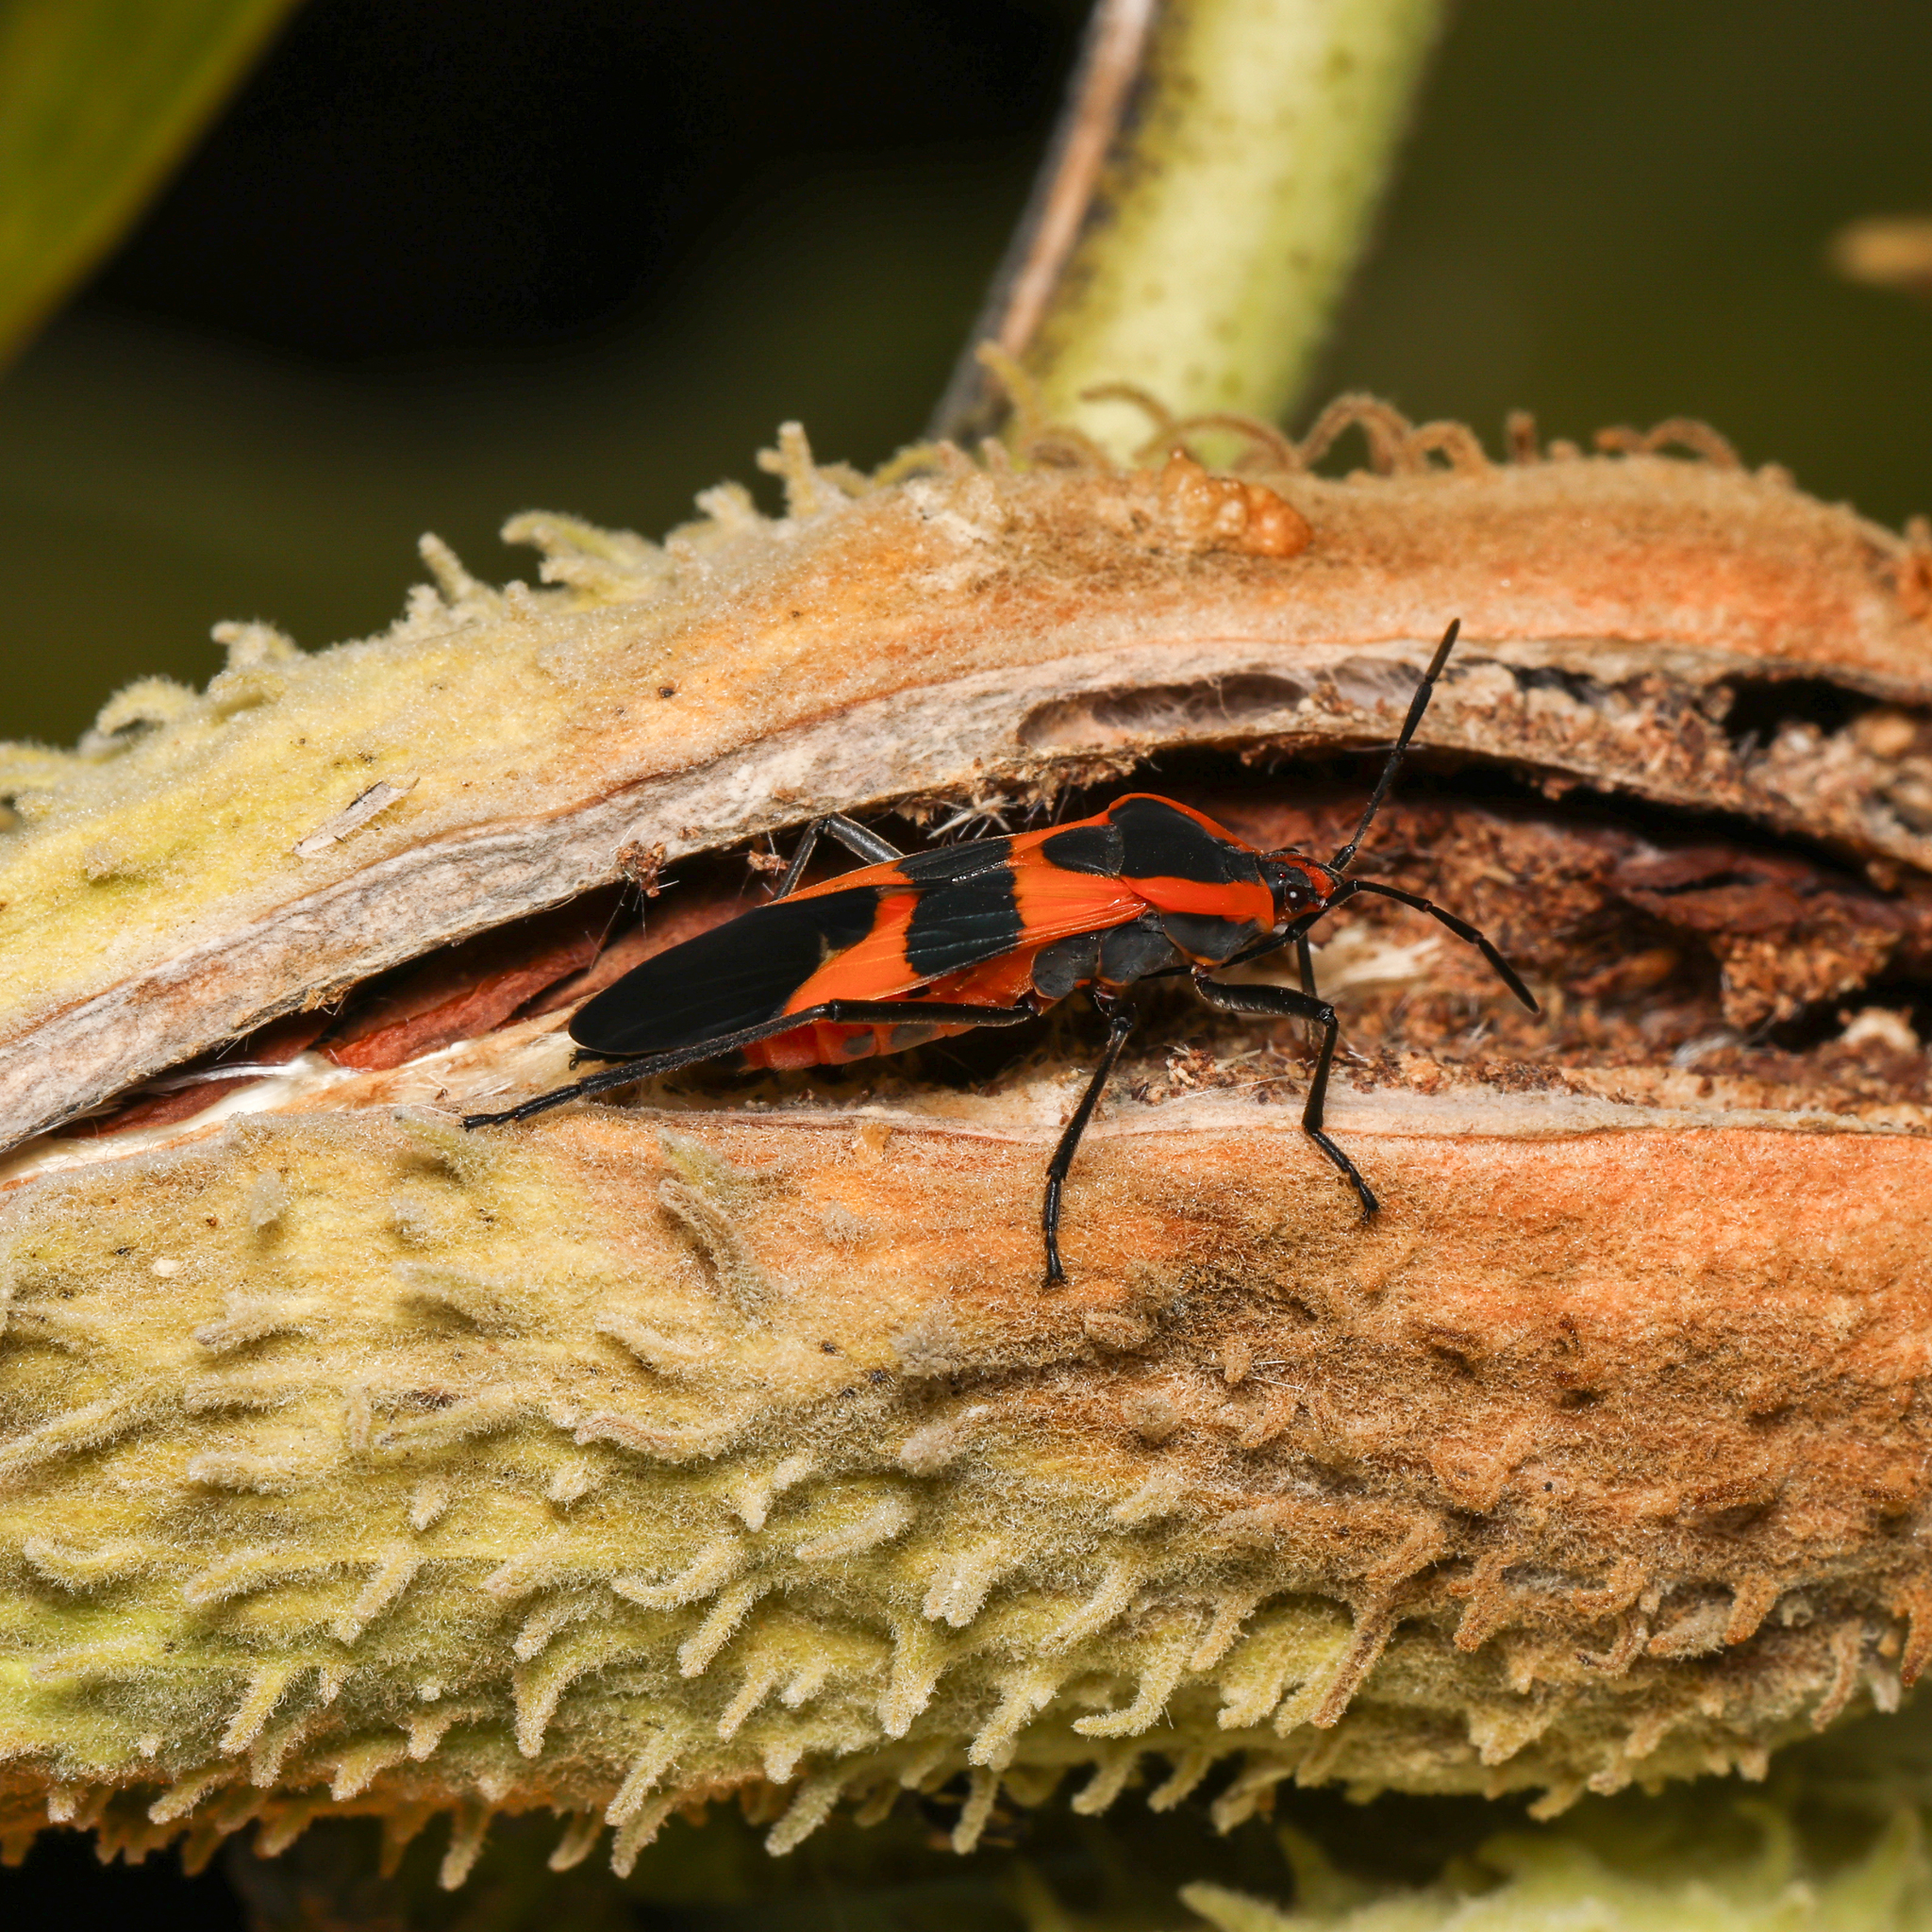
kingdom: Animalia
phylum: Arthropoda
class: Insecta
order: Hemiptera
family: Lygaeidae
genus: Oncopeltus
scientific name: Oncopeltus fasciatus
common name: Large milkweed bug
